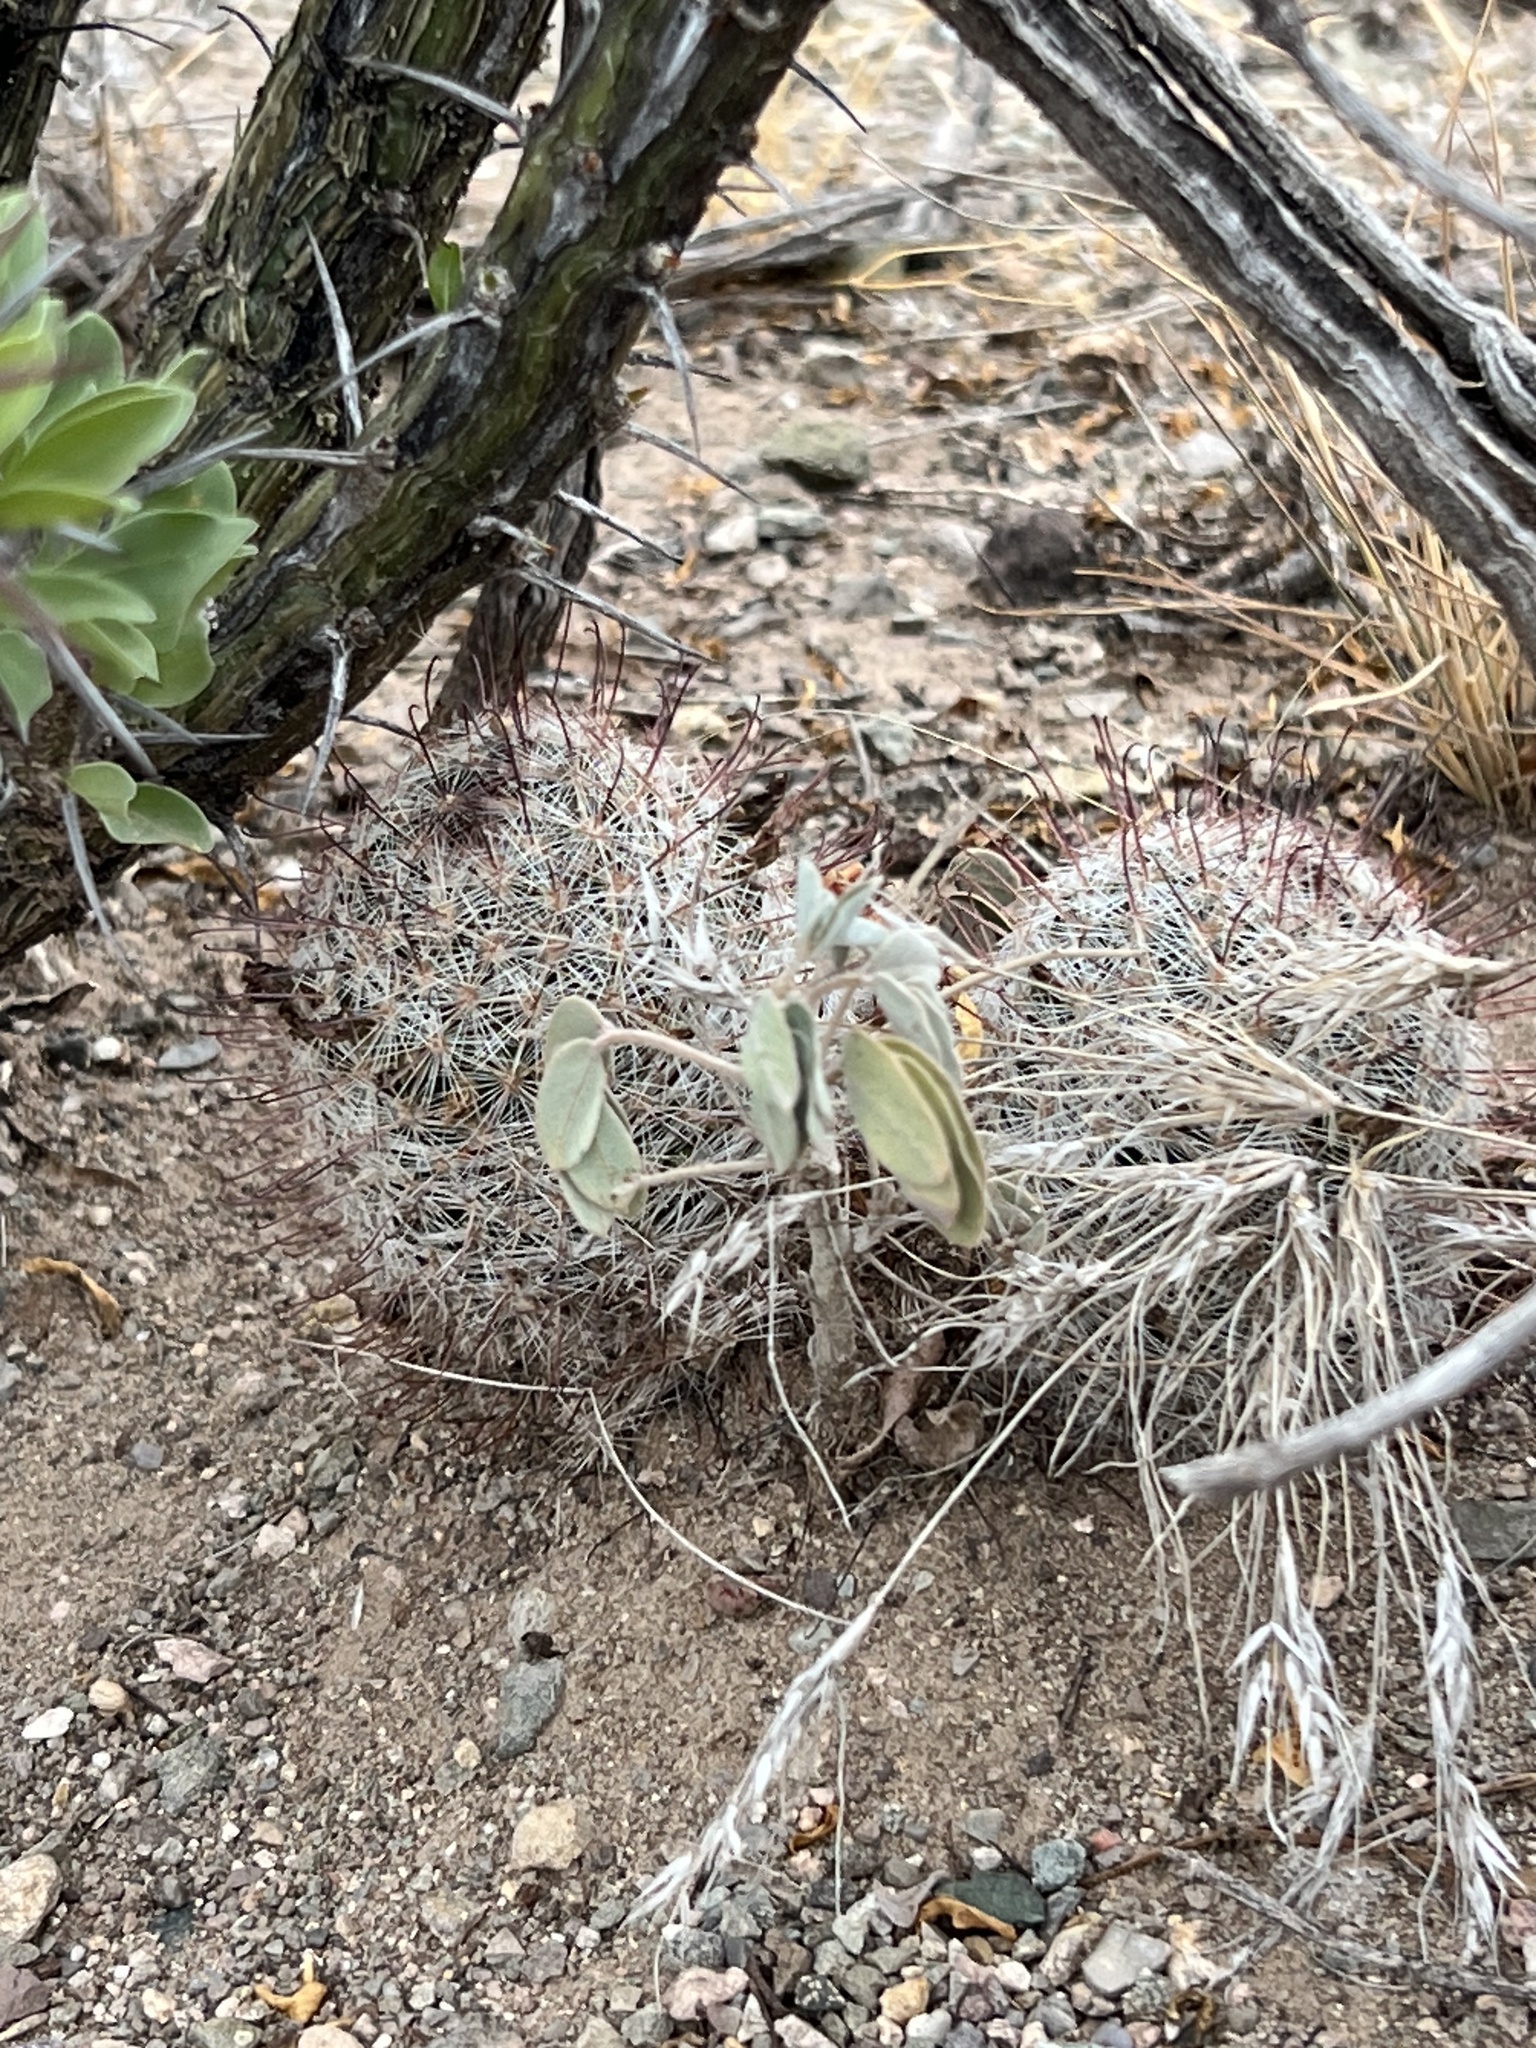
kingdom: Plantae
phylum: Tracheophyta
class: Magnoliopsida
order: Caryophyllales
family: Cactaceae
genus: Cochemiea
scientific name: Cochemiea grahamii
